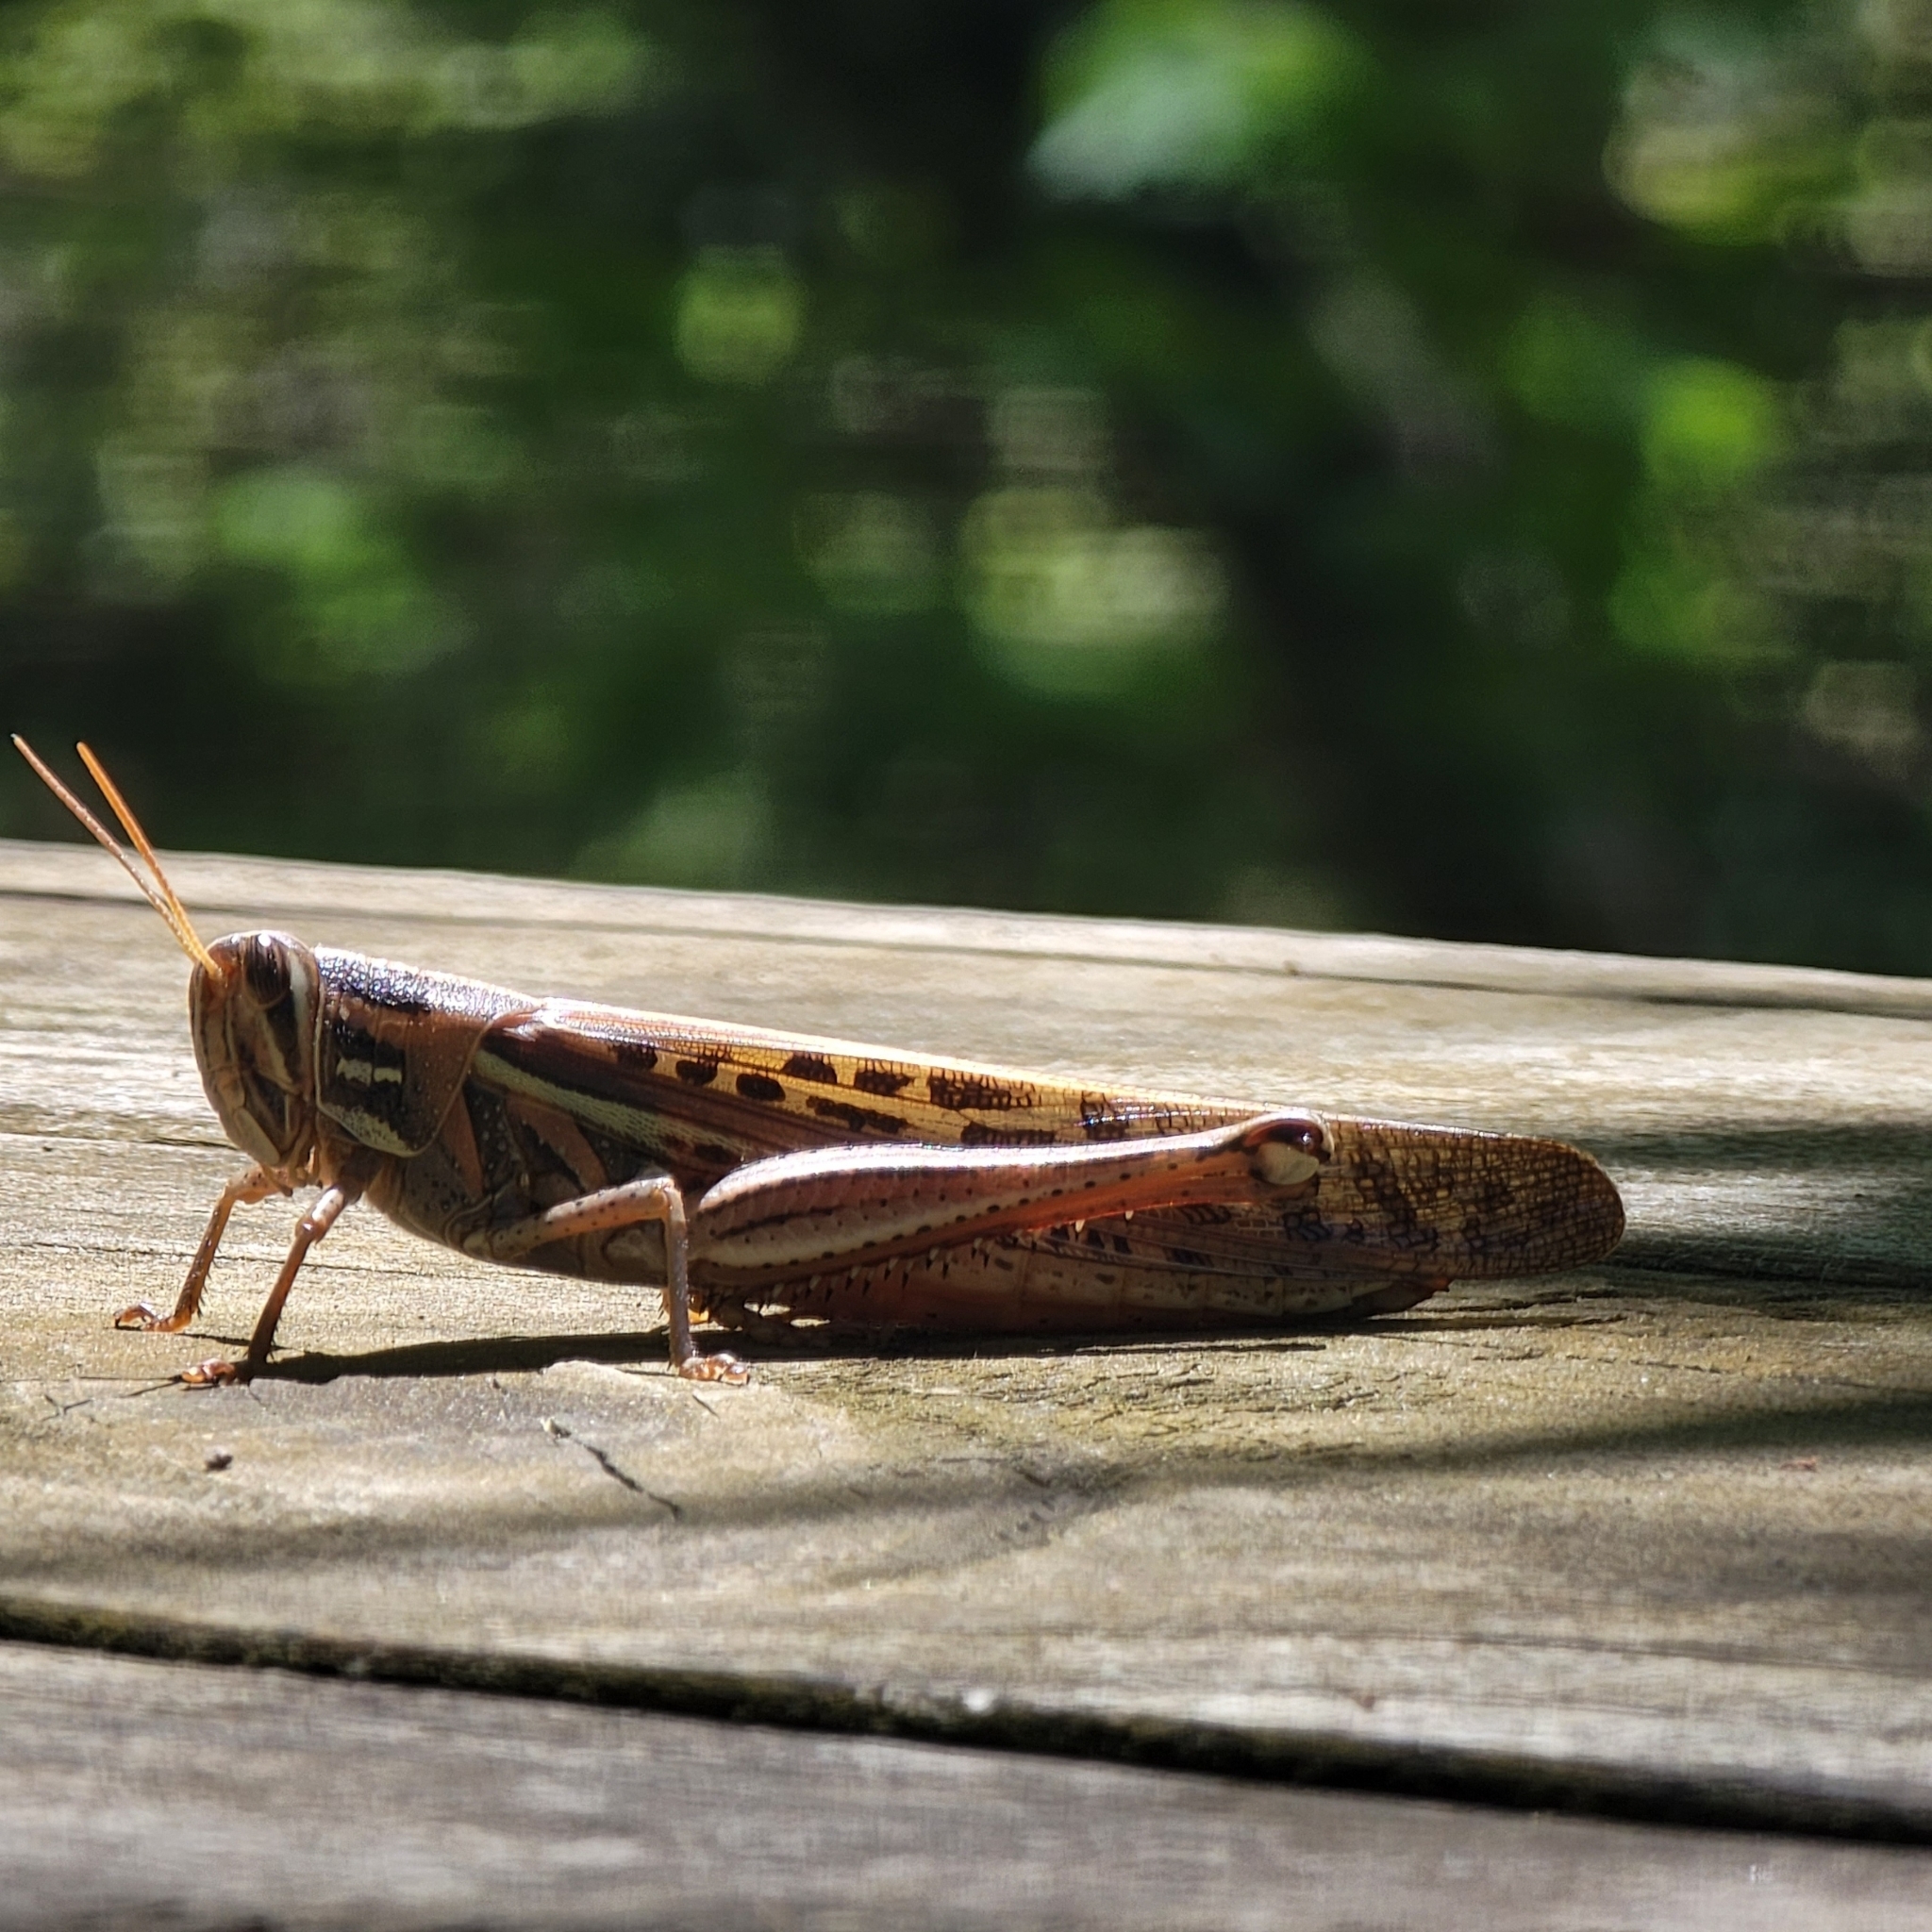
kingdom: Animalia
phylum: Arthropoda
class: Insecta
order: Orthoptera
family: Acrididae
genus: Schistocerca
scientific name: Schistocerca americana
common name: American bird locust
